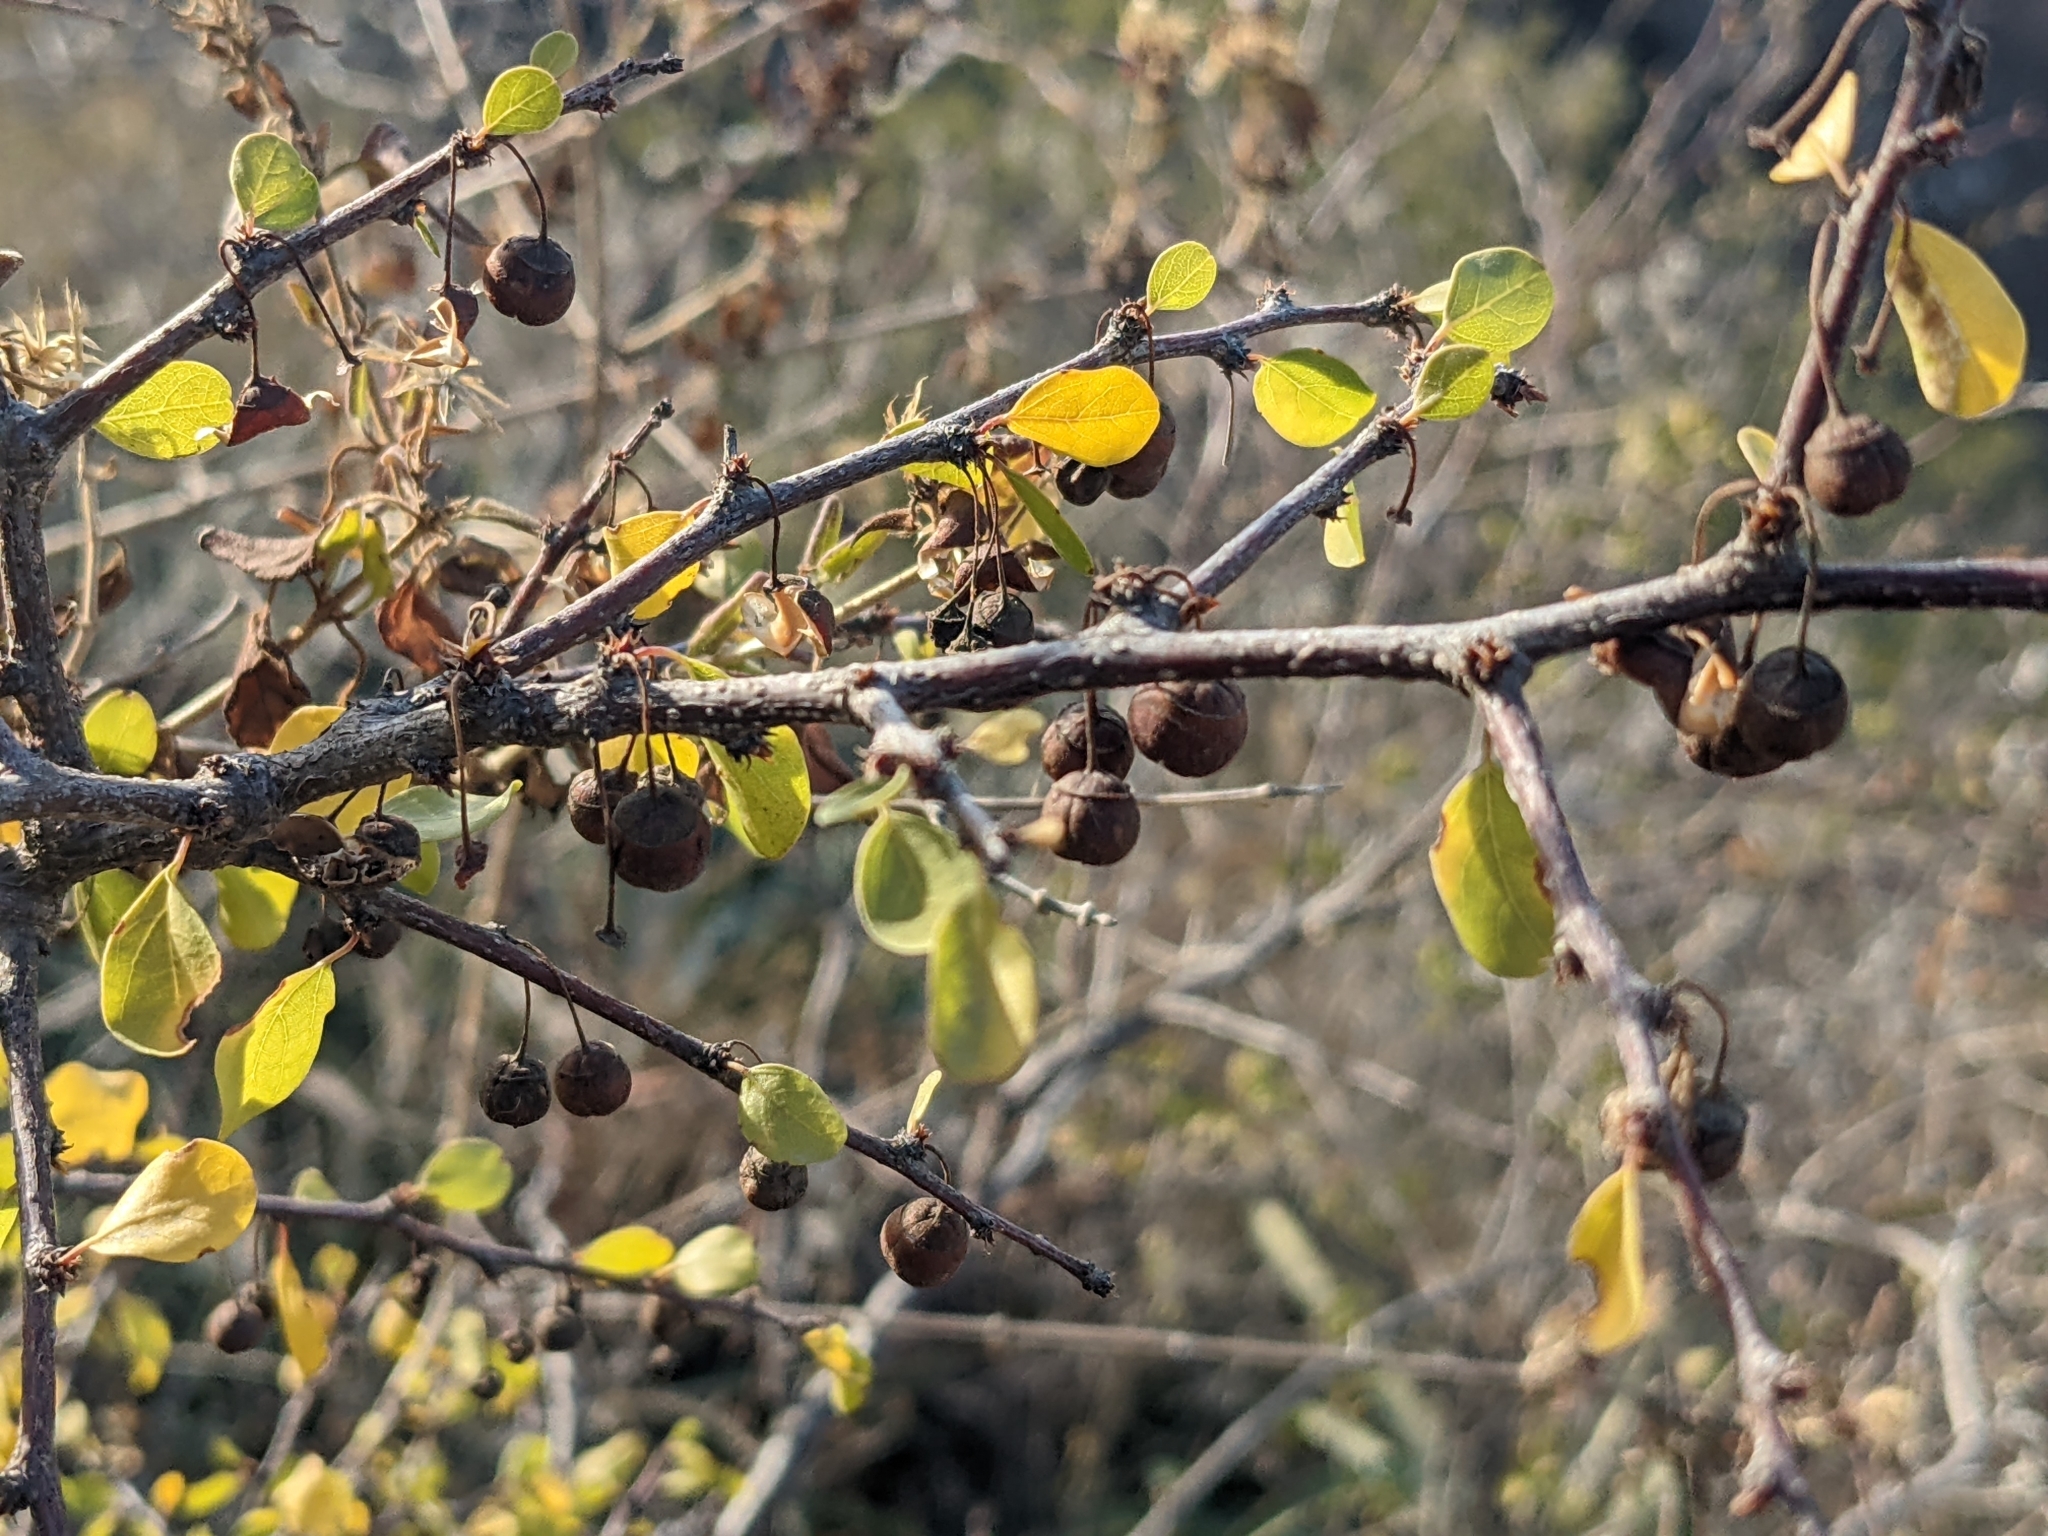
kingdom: Plantae
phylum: Tracheophyta
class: Magnoliopsida
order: Rosales
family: Rhamnaceae
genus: Colubrina
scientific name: Colubrina viridis
